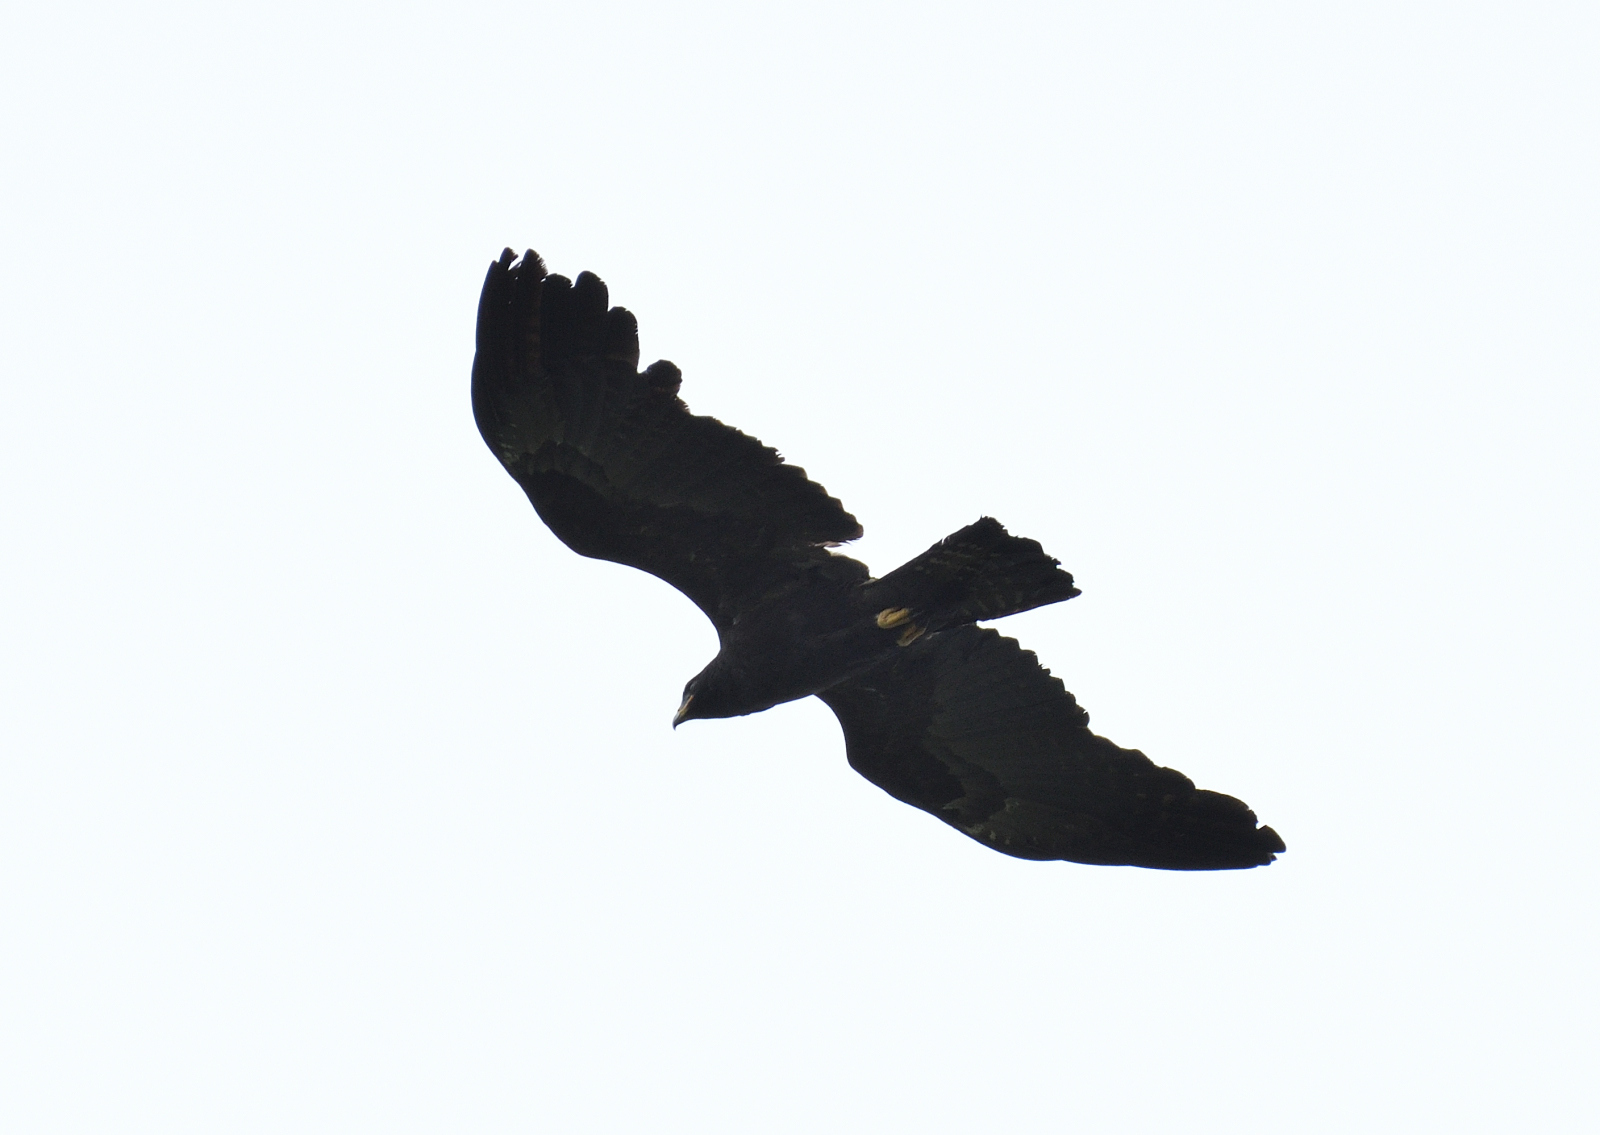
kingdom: Animalia
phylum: Chordata
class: Aves
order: Accipitriformes
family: Accipitridae
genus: Ictinaetus
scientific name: Ictinaetus malayensis
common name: Black eagle
